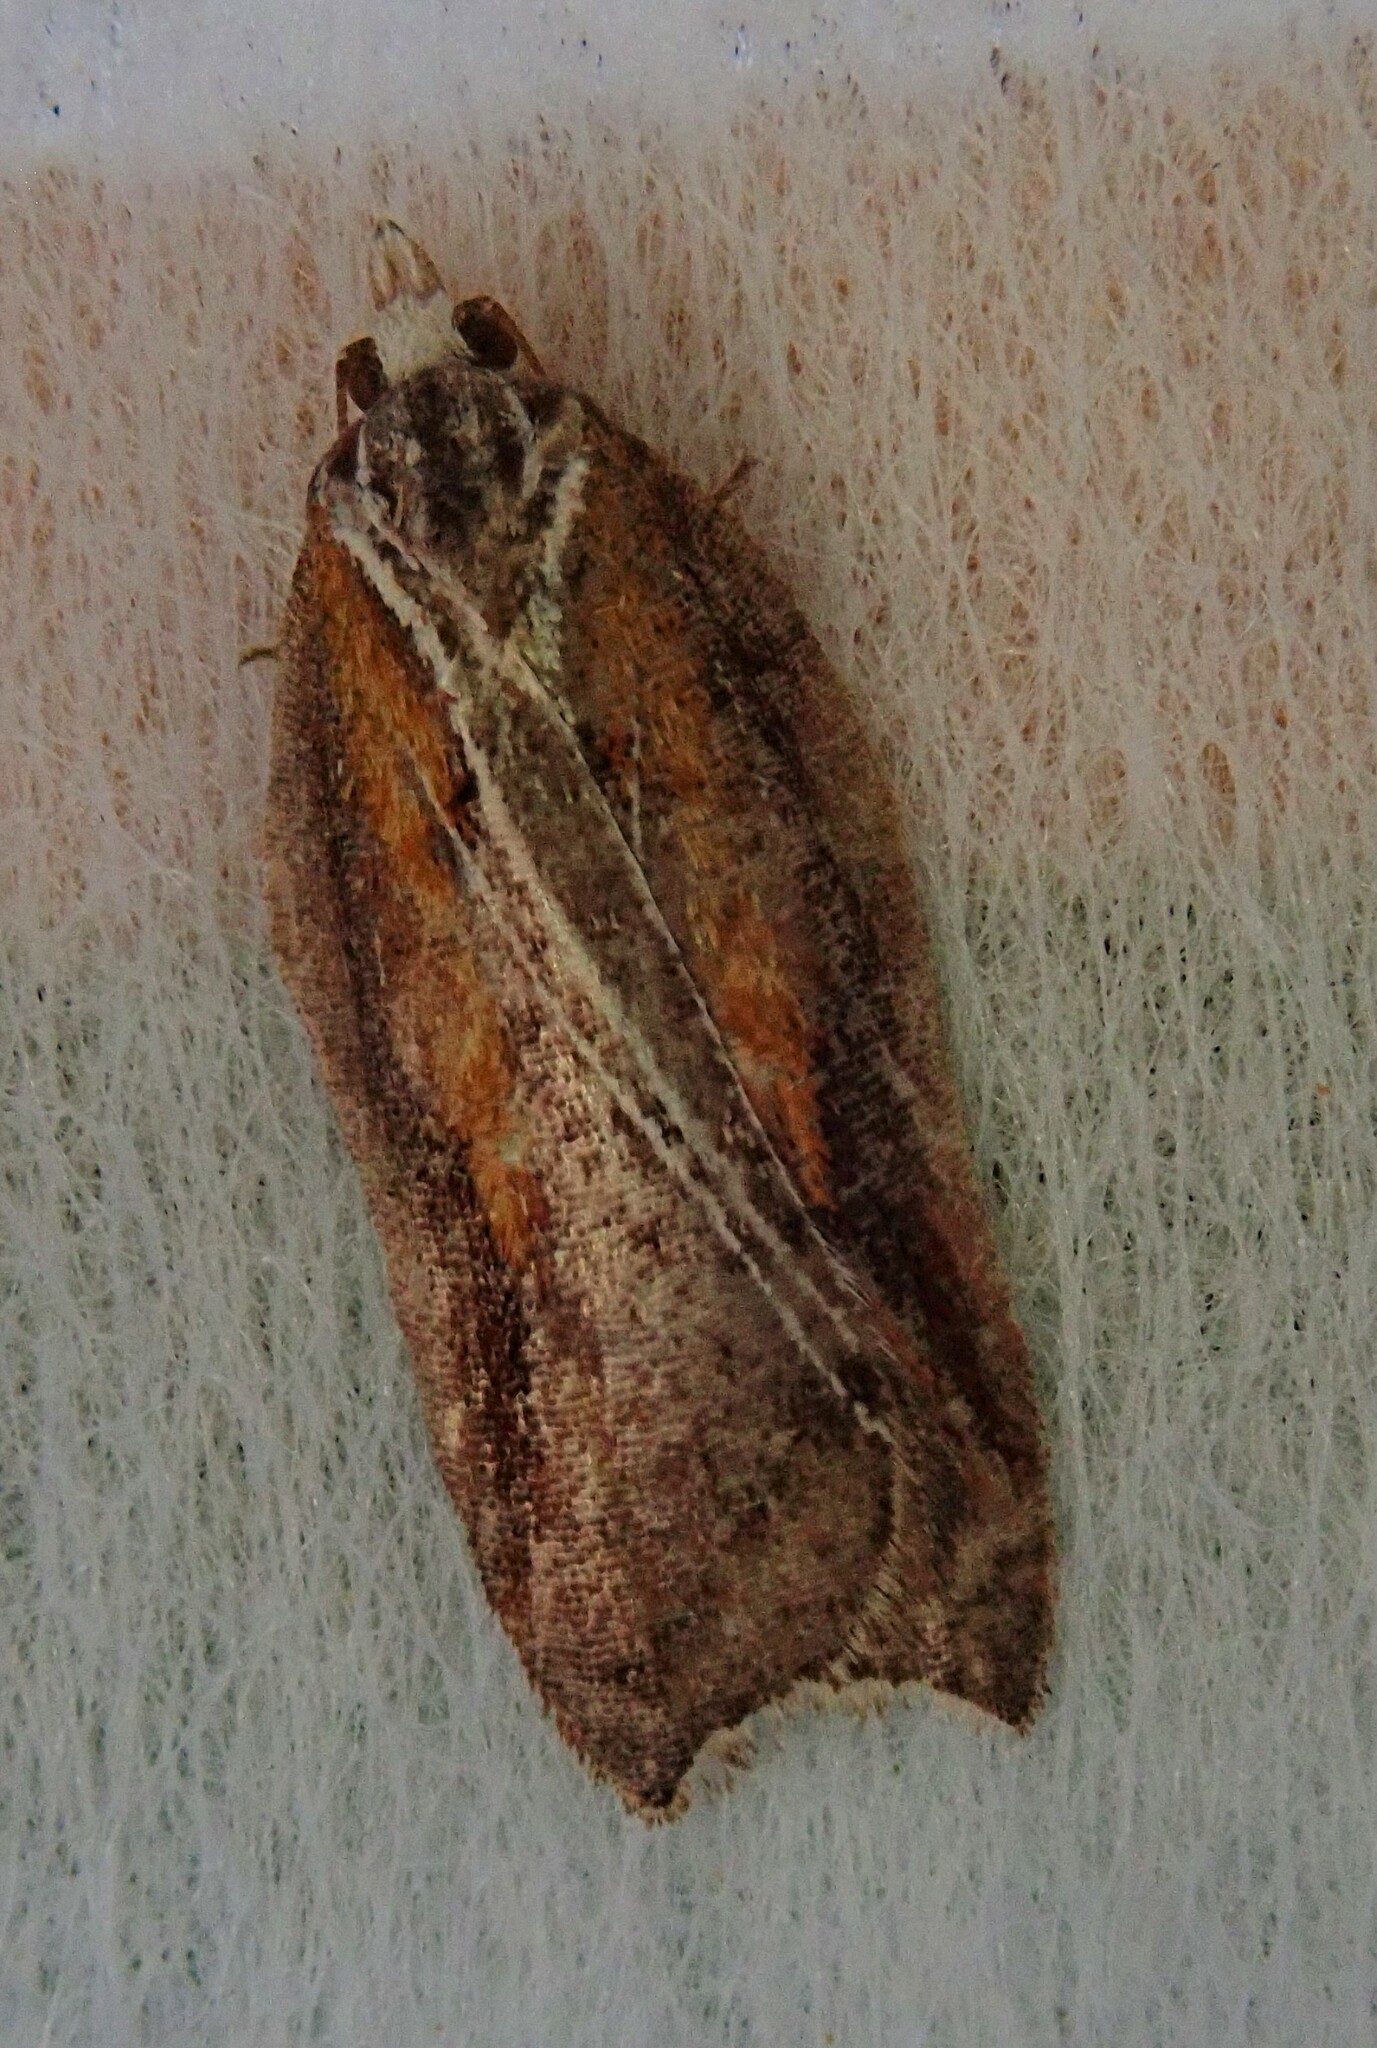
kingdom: Animalia
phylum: Arthropoda
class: Insecta
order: Lepidoptera
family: Tortricidae
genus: Acleris
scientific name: Acleris cristana
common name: Tufted button
